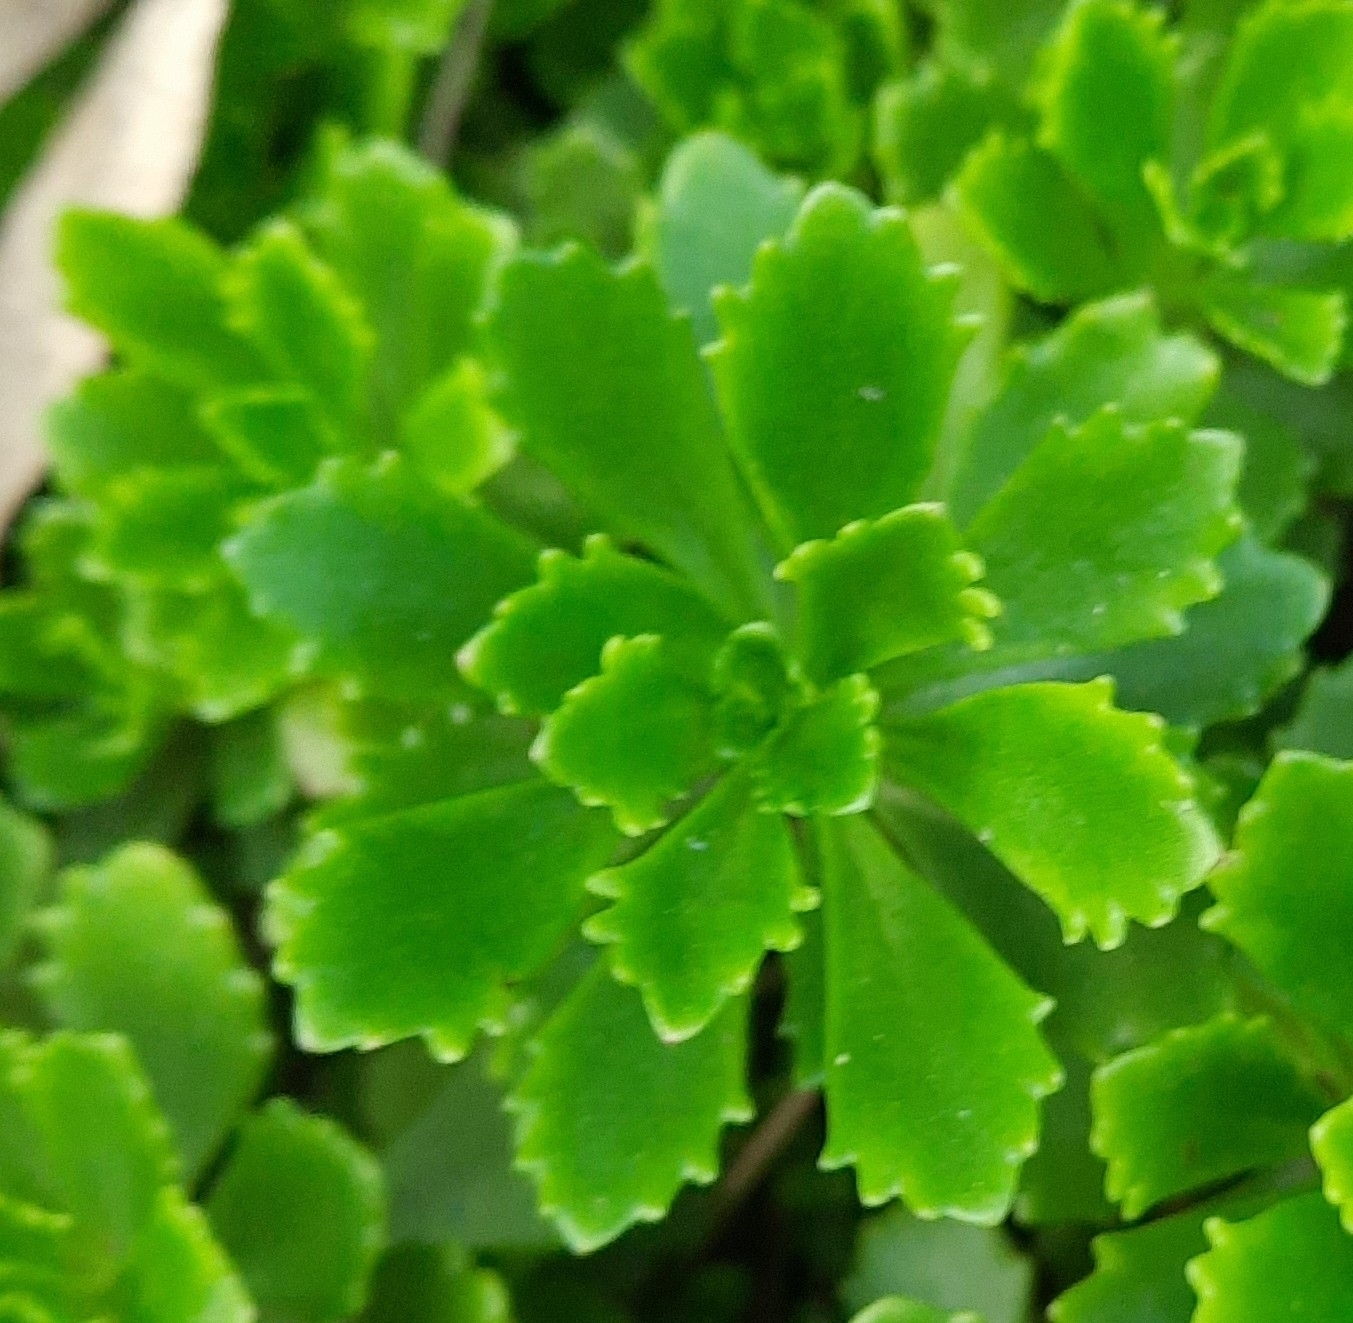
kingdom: Plantae
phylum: Tracheophyta
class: Magnoliopsida
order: Saxifragales
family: Crassulaceae
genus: Phedimus
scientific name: Phedimus hybridus
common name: Hybrid stonecrop
